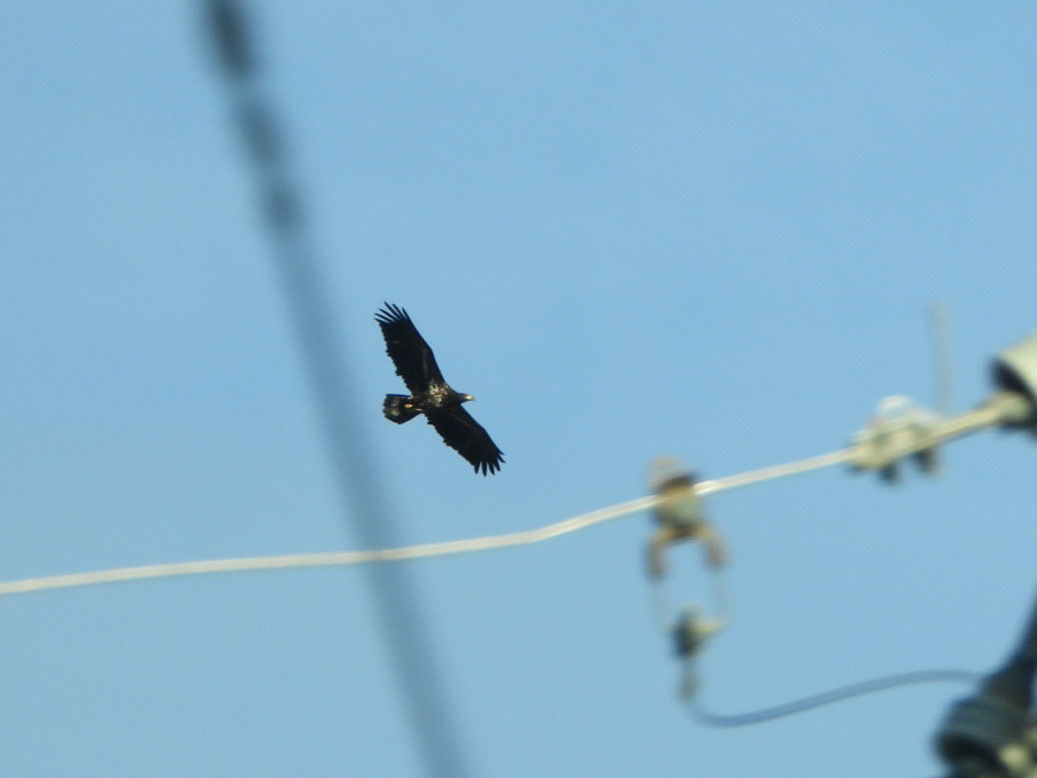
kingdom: Animalia
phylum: Chordata
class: Aves
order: Accipitriformes
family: Accipitridae
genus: Haliaeetus
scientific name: Haliaeetus leucocephalus
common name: Bald eagle
